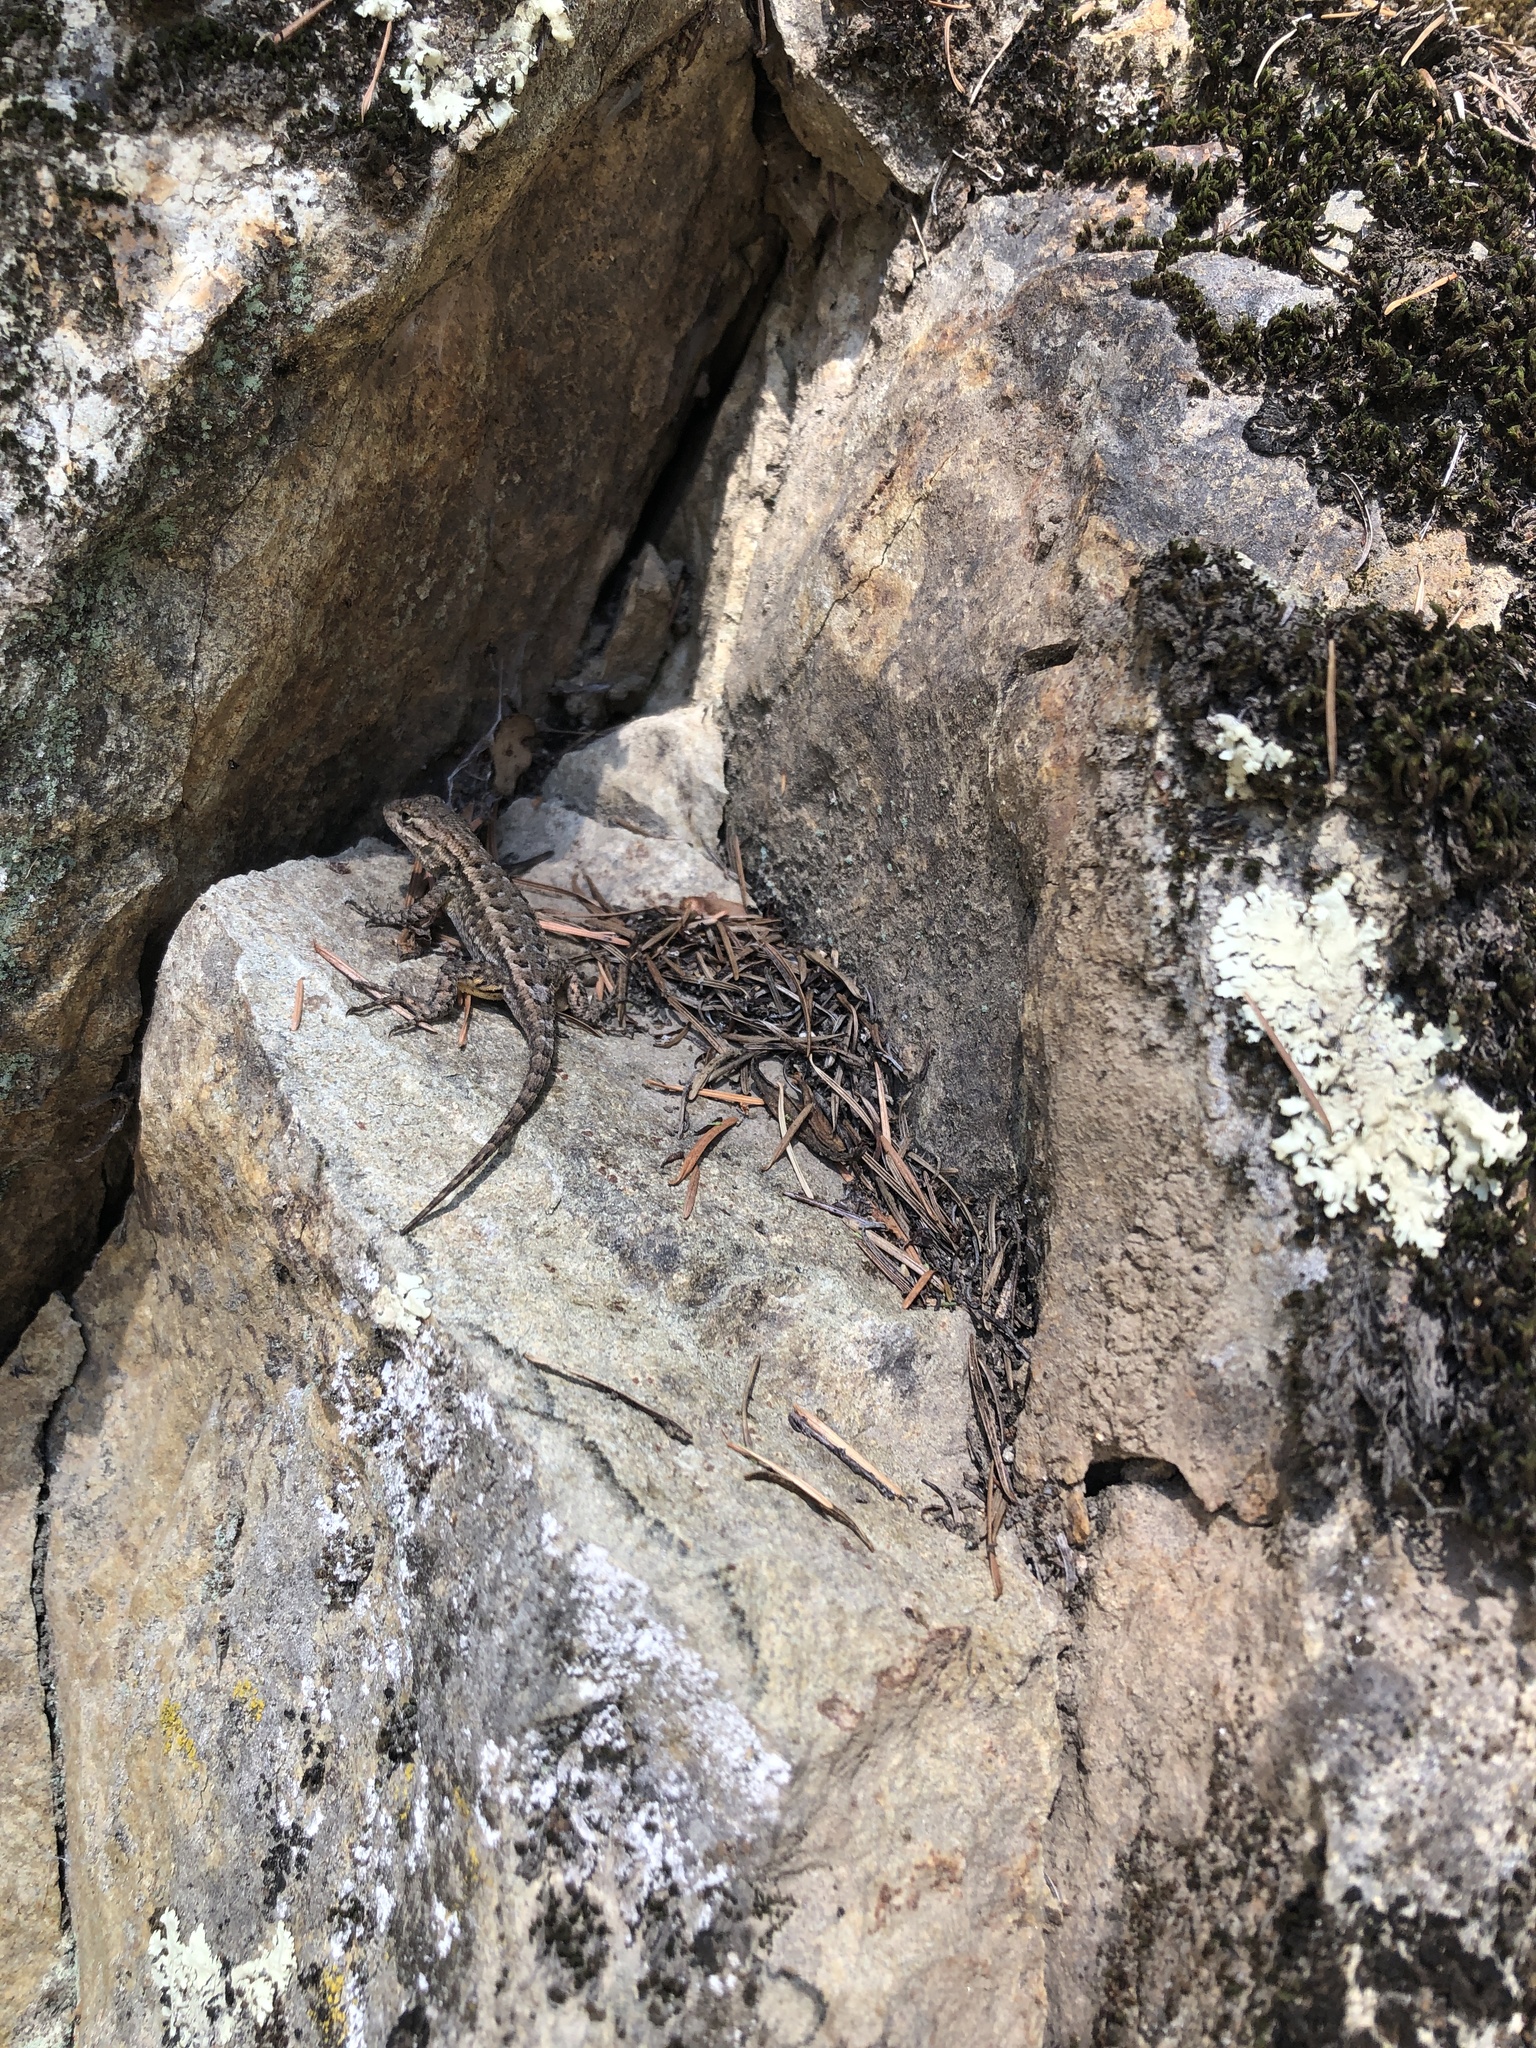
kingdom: Animalia
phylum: Chordata
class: Squamata
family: Phrynosomatidae
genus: Sceloporus
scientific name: Sceloporus occidentalis
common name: Western fence lizard
